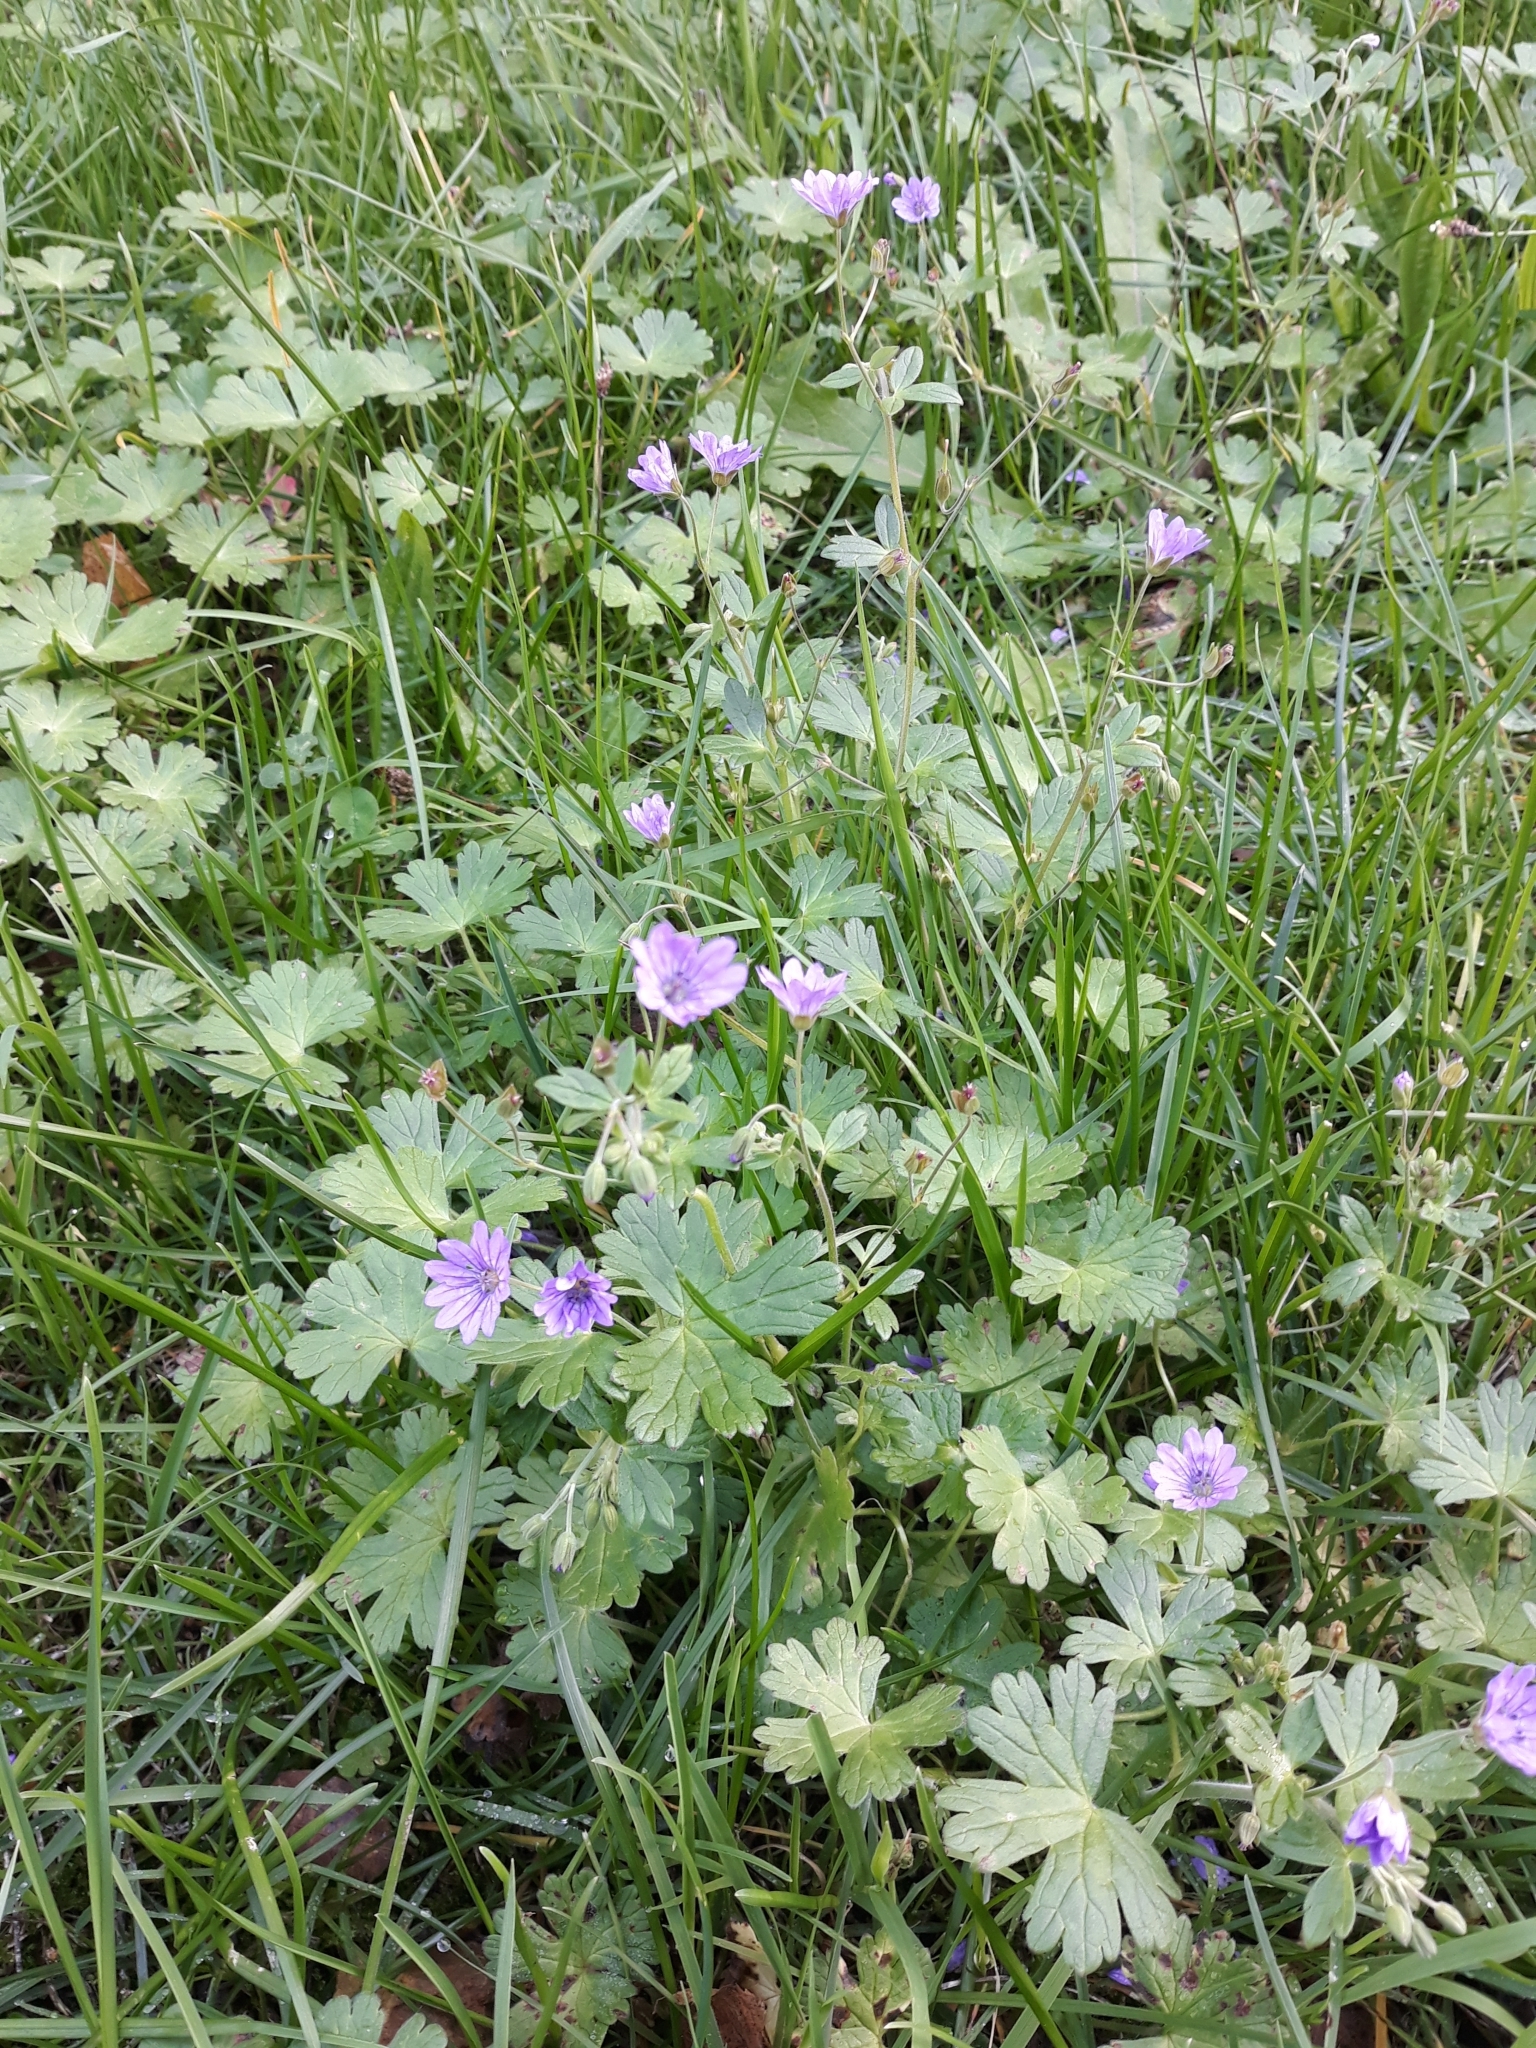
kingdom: Plantae
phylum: Tracheophyta
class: Magnoliopsida
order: Geraniales
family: Geraniaceae
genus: Geranium
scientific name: Geranium pyrenaicum
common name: Hedgerow crane's-bill
